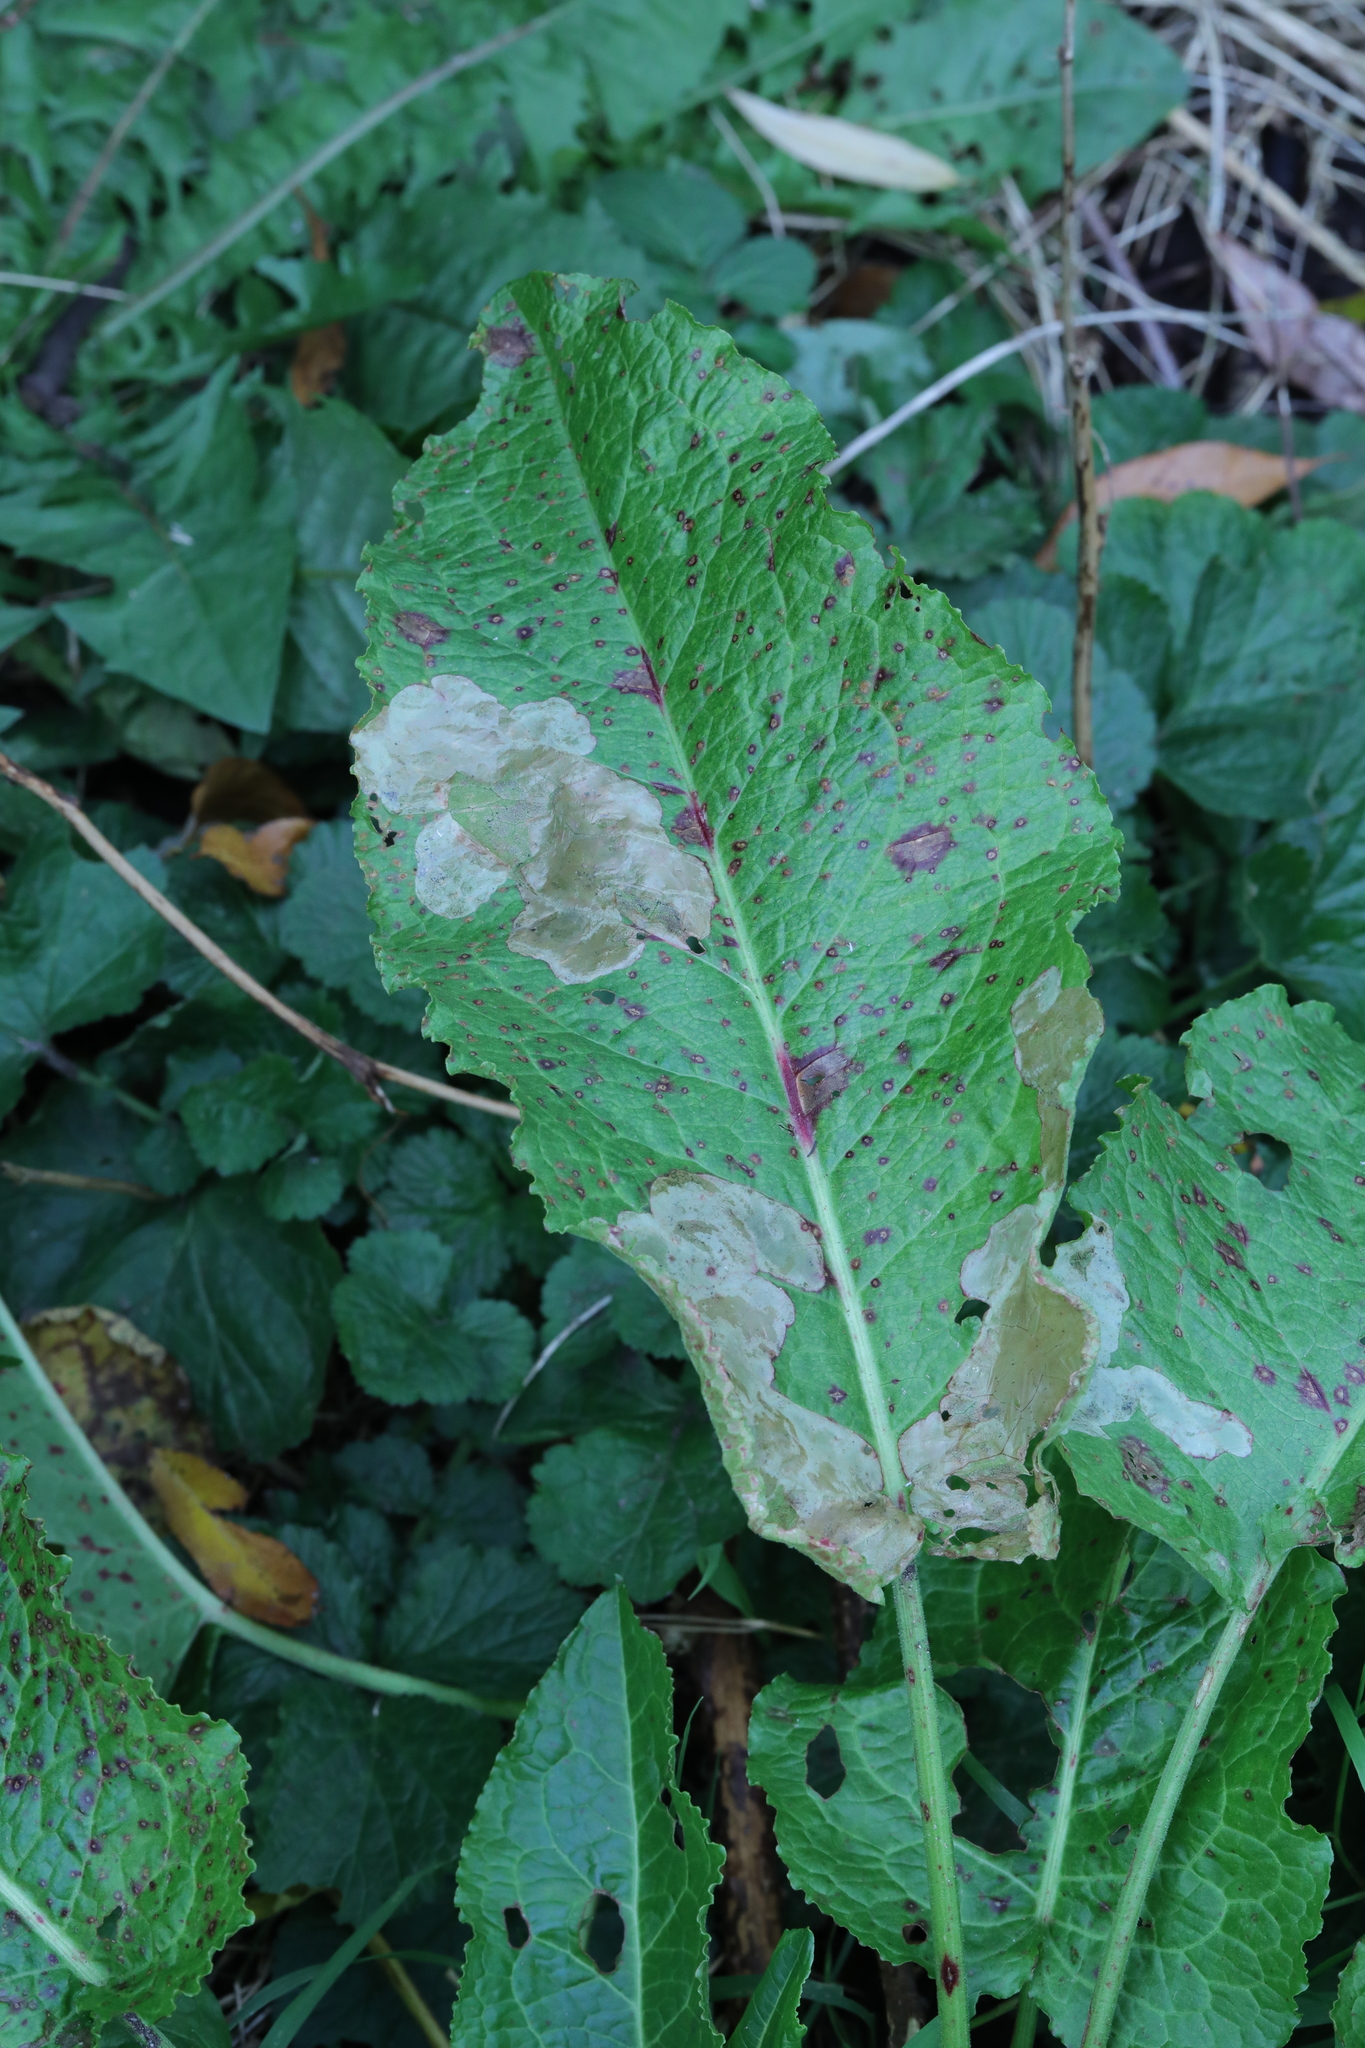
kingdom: Plantae
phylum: Tracheophyta
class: Magnoliopsida
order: Caryophyllales
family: Polygonaceae
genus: Rumex
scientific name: Rumex obtusifolius
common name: Bitter dock
